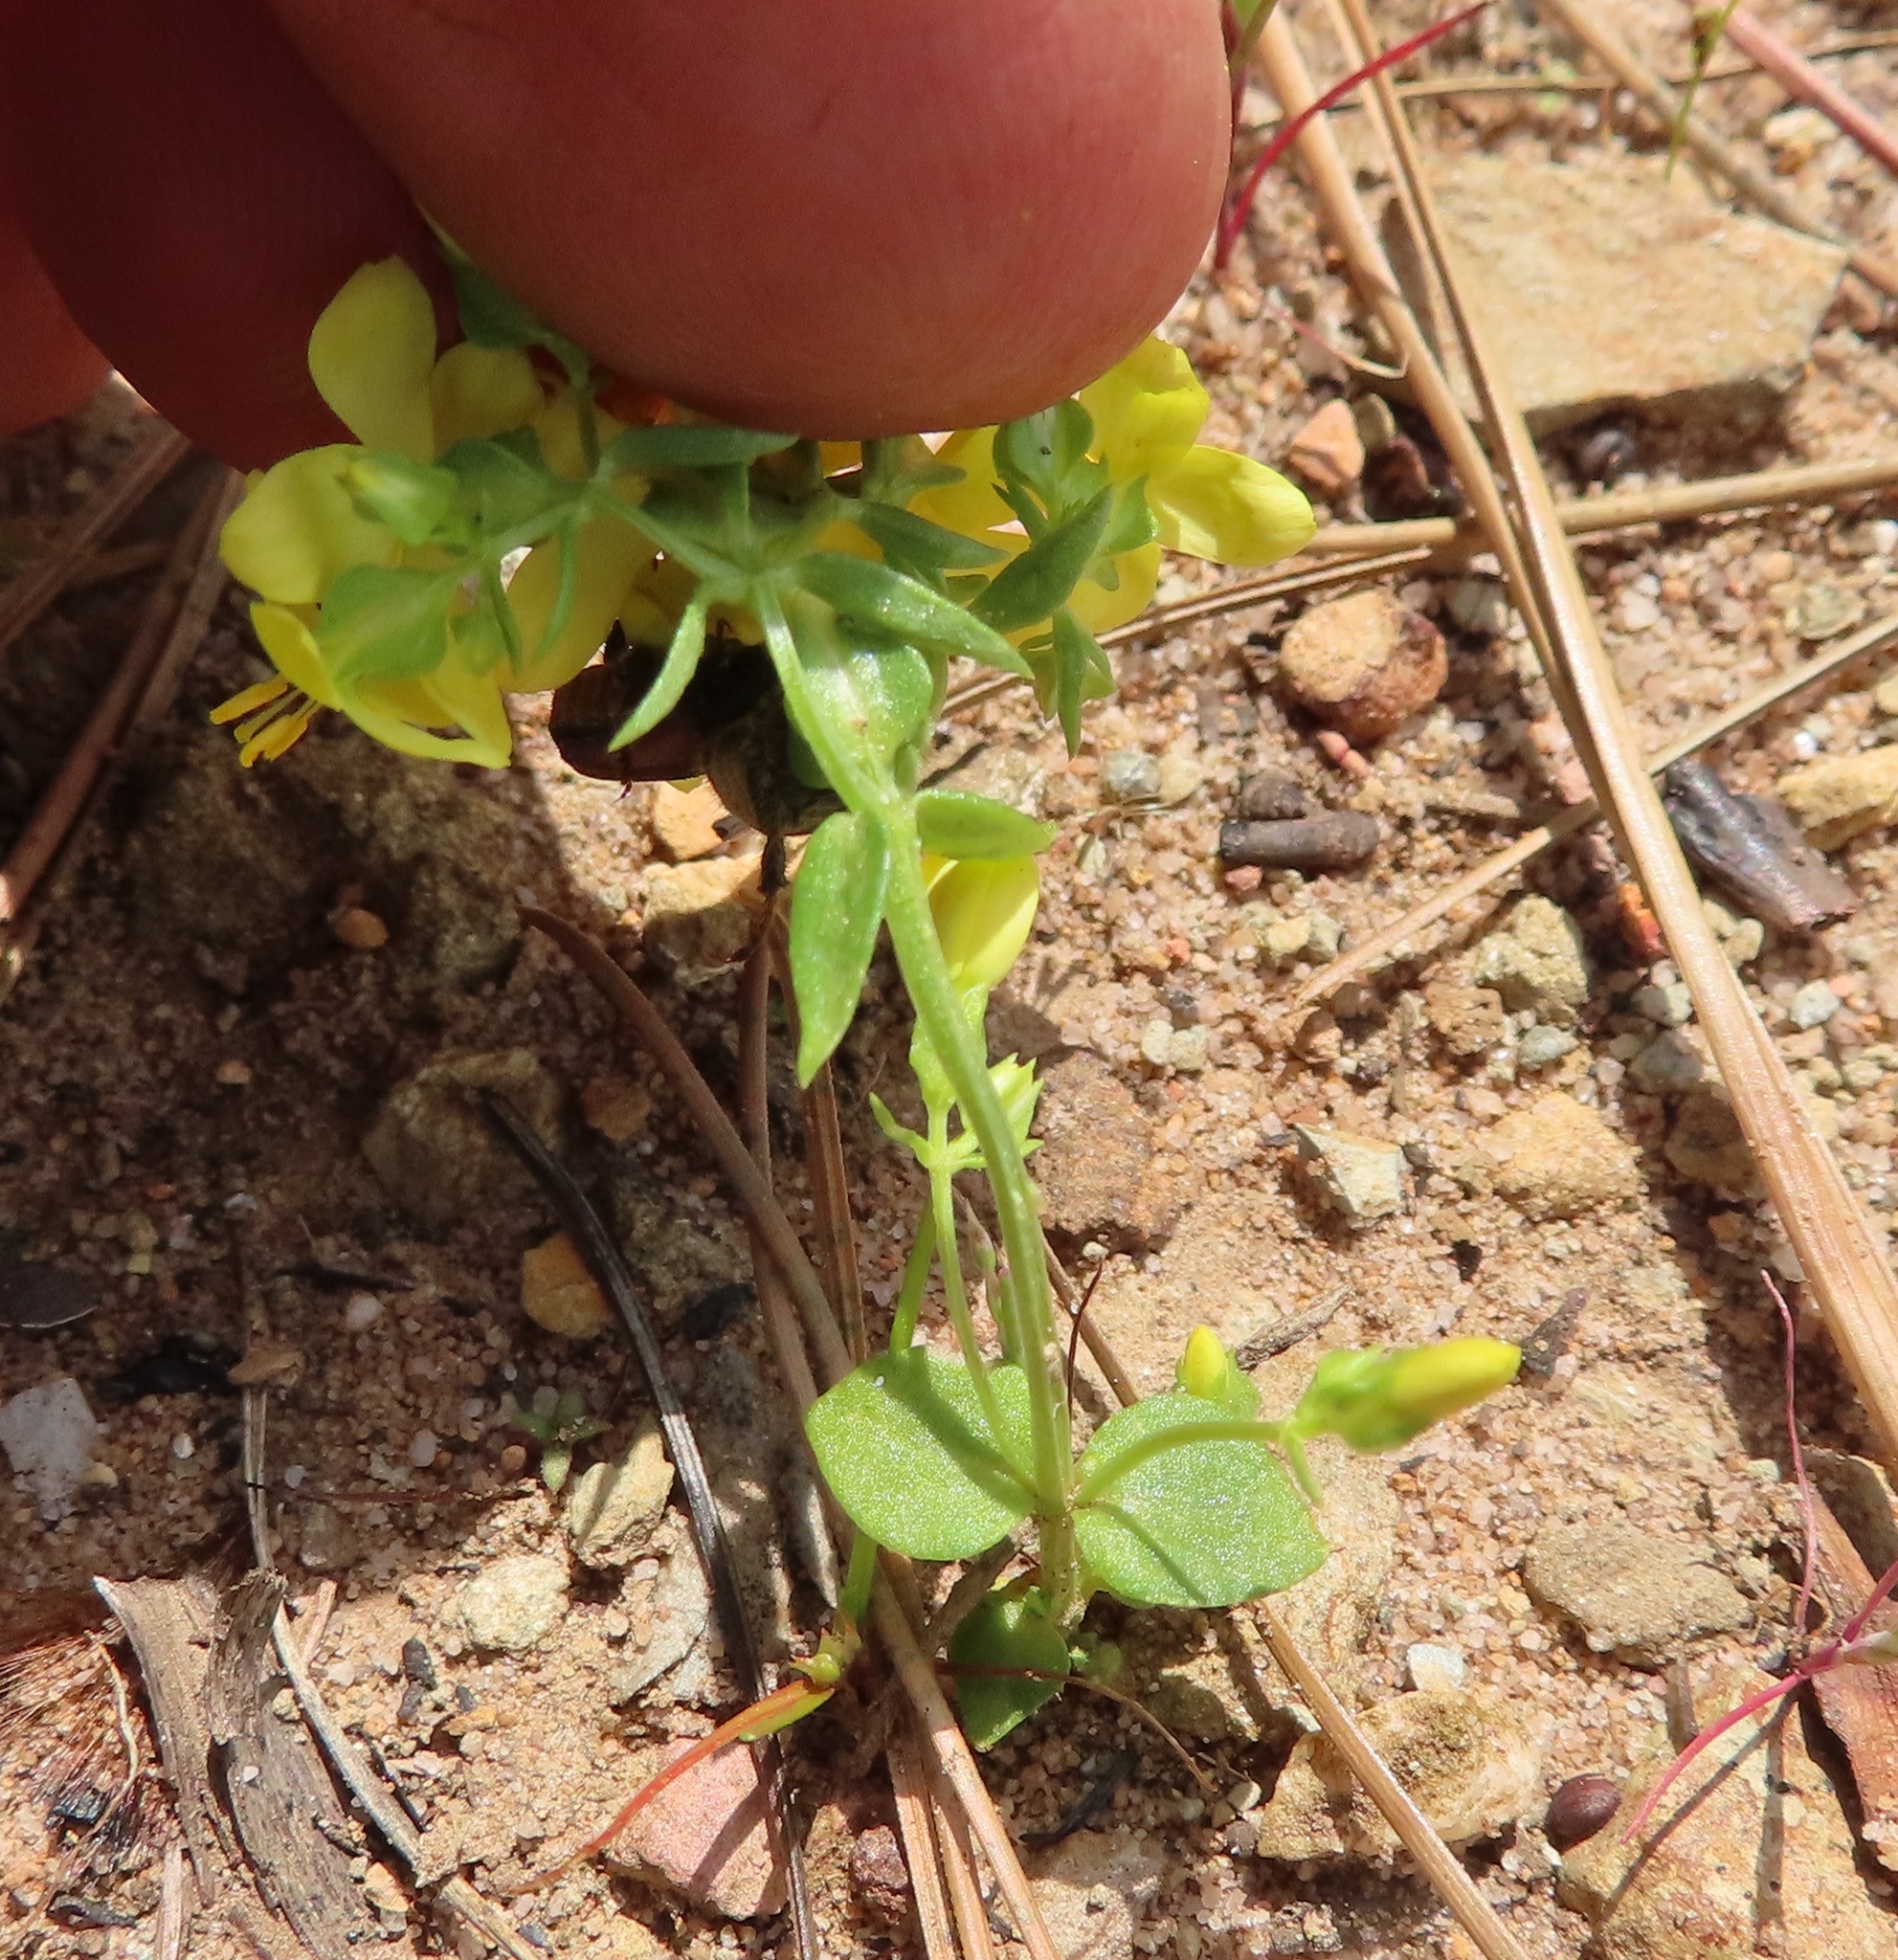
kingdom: Plantae
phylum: Tracheophyta
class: Magnoliopsida
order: Gentianales
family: Gentianaceae
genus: Sebaea
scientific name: Sebaea aurea
